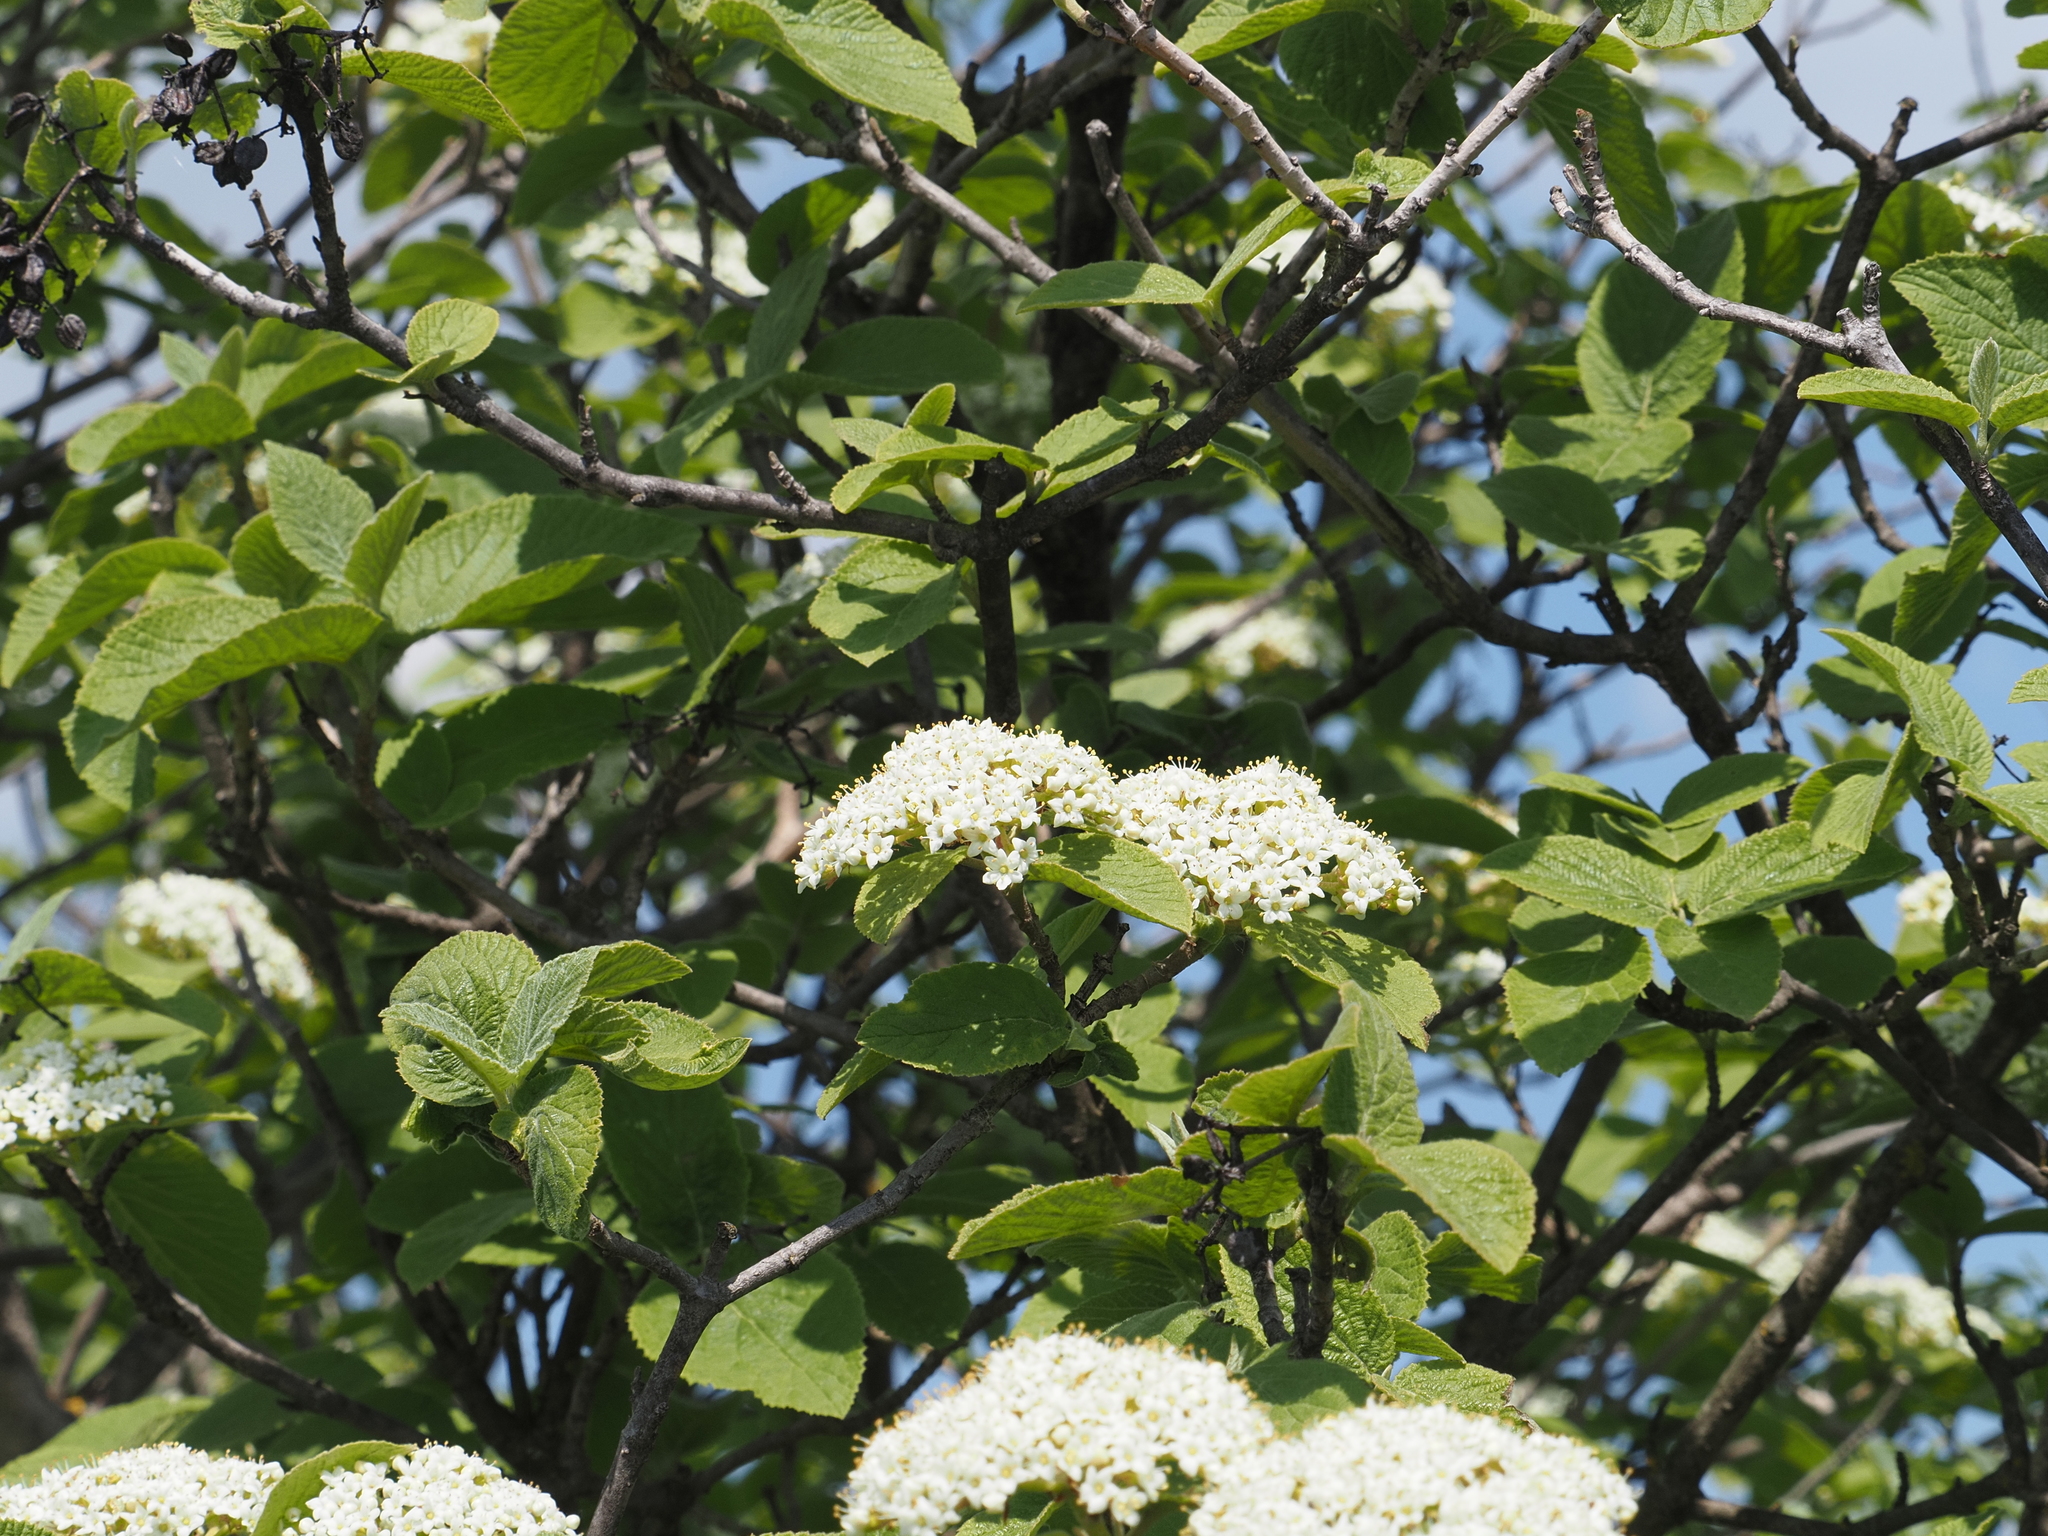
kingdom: Plantae
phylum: Tracheophyta
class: Magnoliopsida
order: Dipsacales
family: Viburnaceae
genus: Viburnum
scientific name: Viburnum lantana
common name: Wayfaring tree
